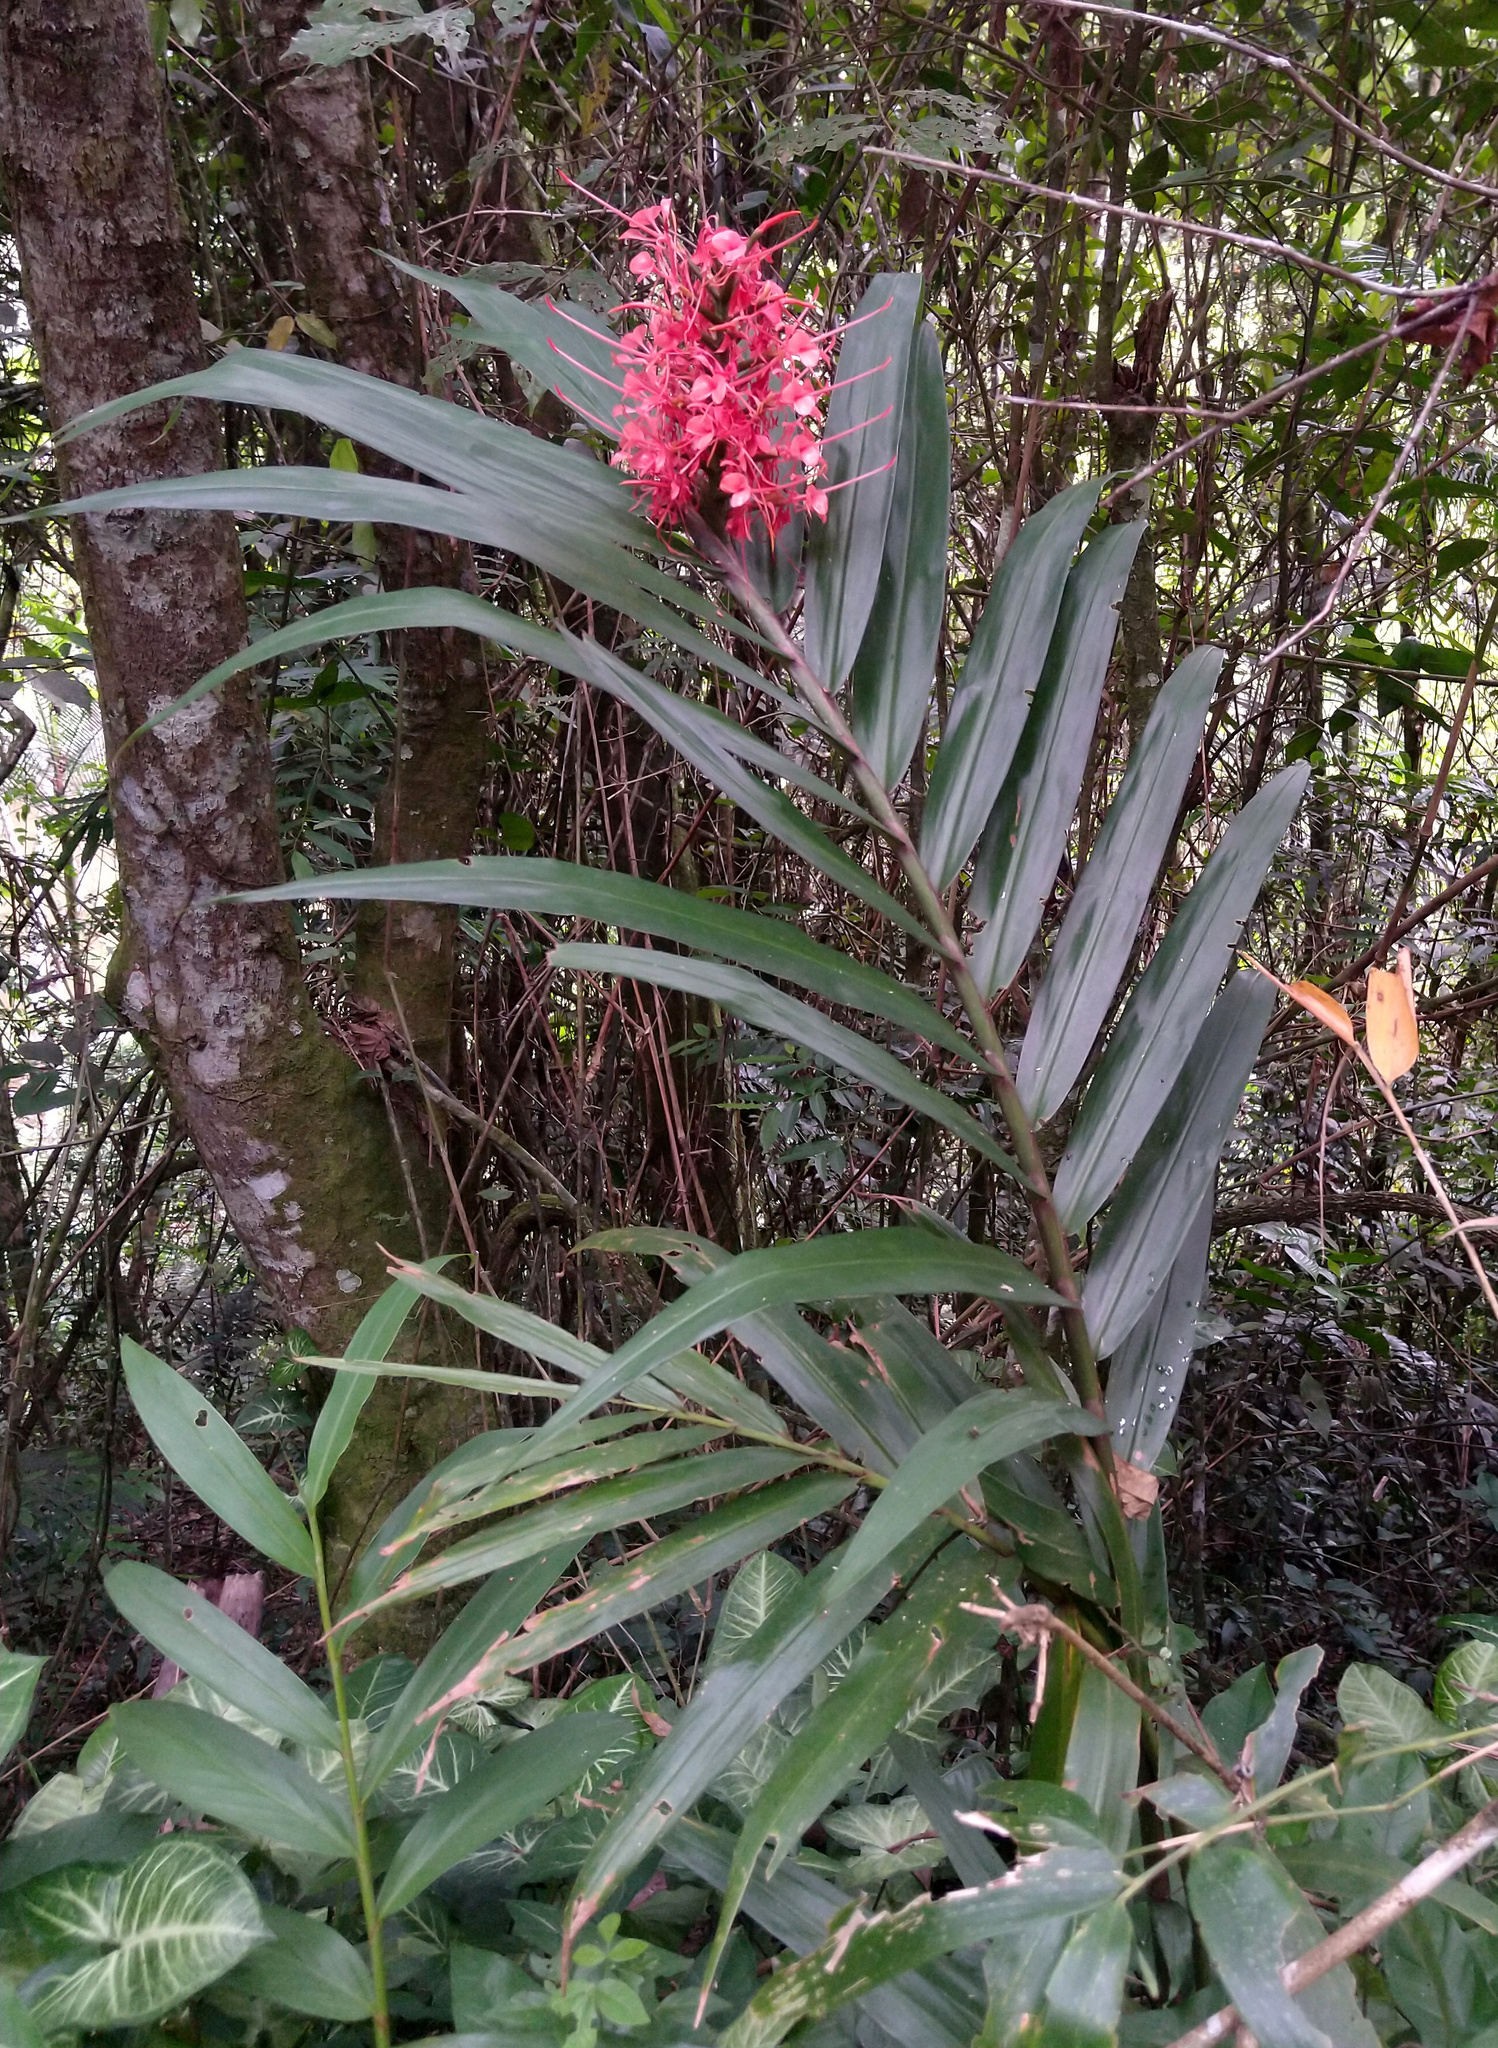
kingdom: Plantae
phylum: Tracheophyta
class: Liliopsida
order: Zingiberales
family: Zingiberaceae
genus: Hedychium
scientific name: Hedychium coccineum
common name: Red ginger-lily
